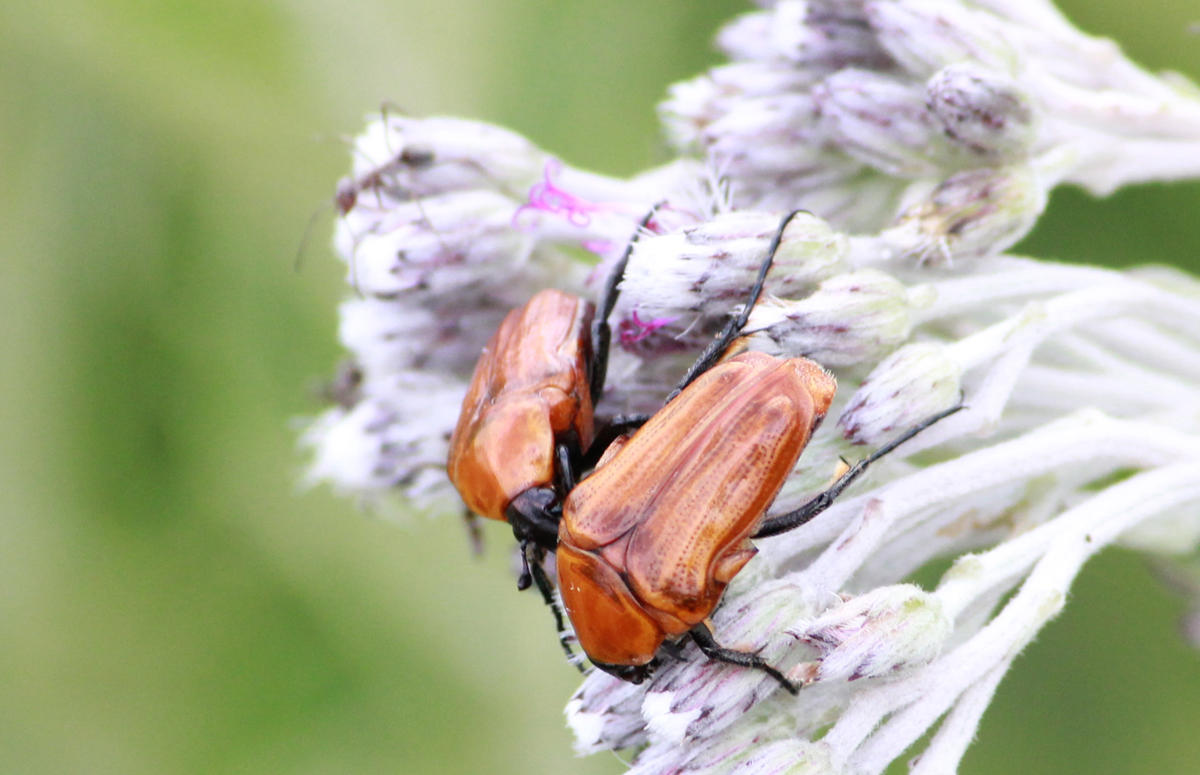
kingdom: Animalia
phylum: Arthropoda
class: Insecta
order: Coleoptera
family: Scarabaeidae
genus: Leucocelis
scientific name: Leucocelis rubra
